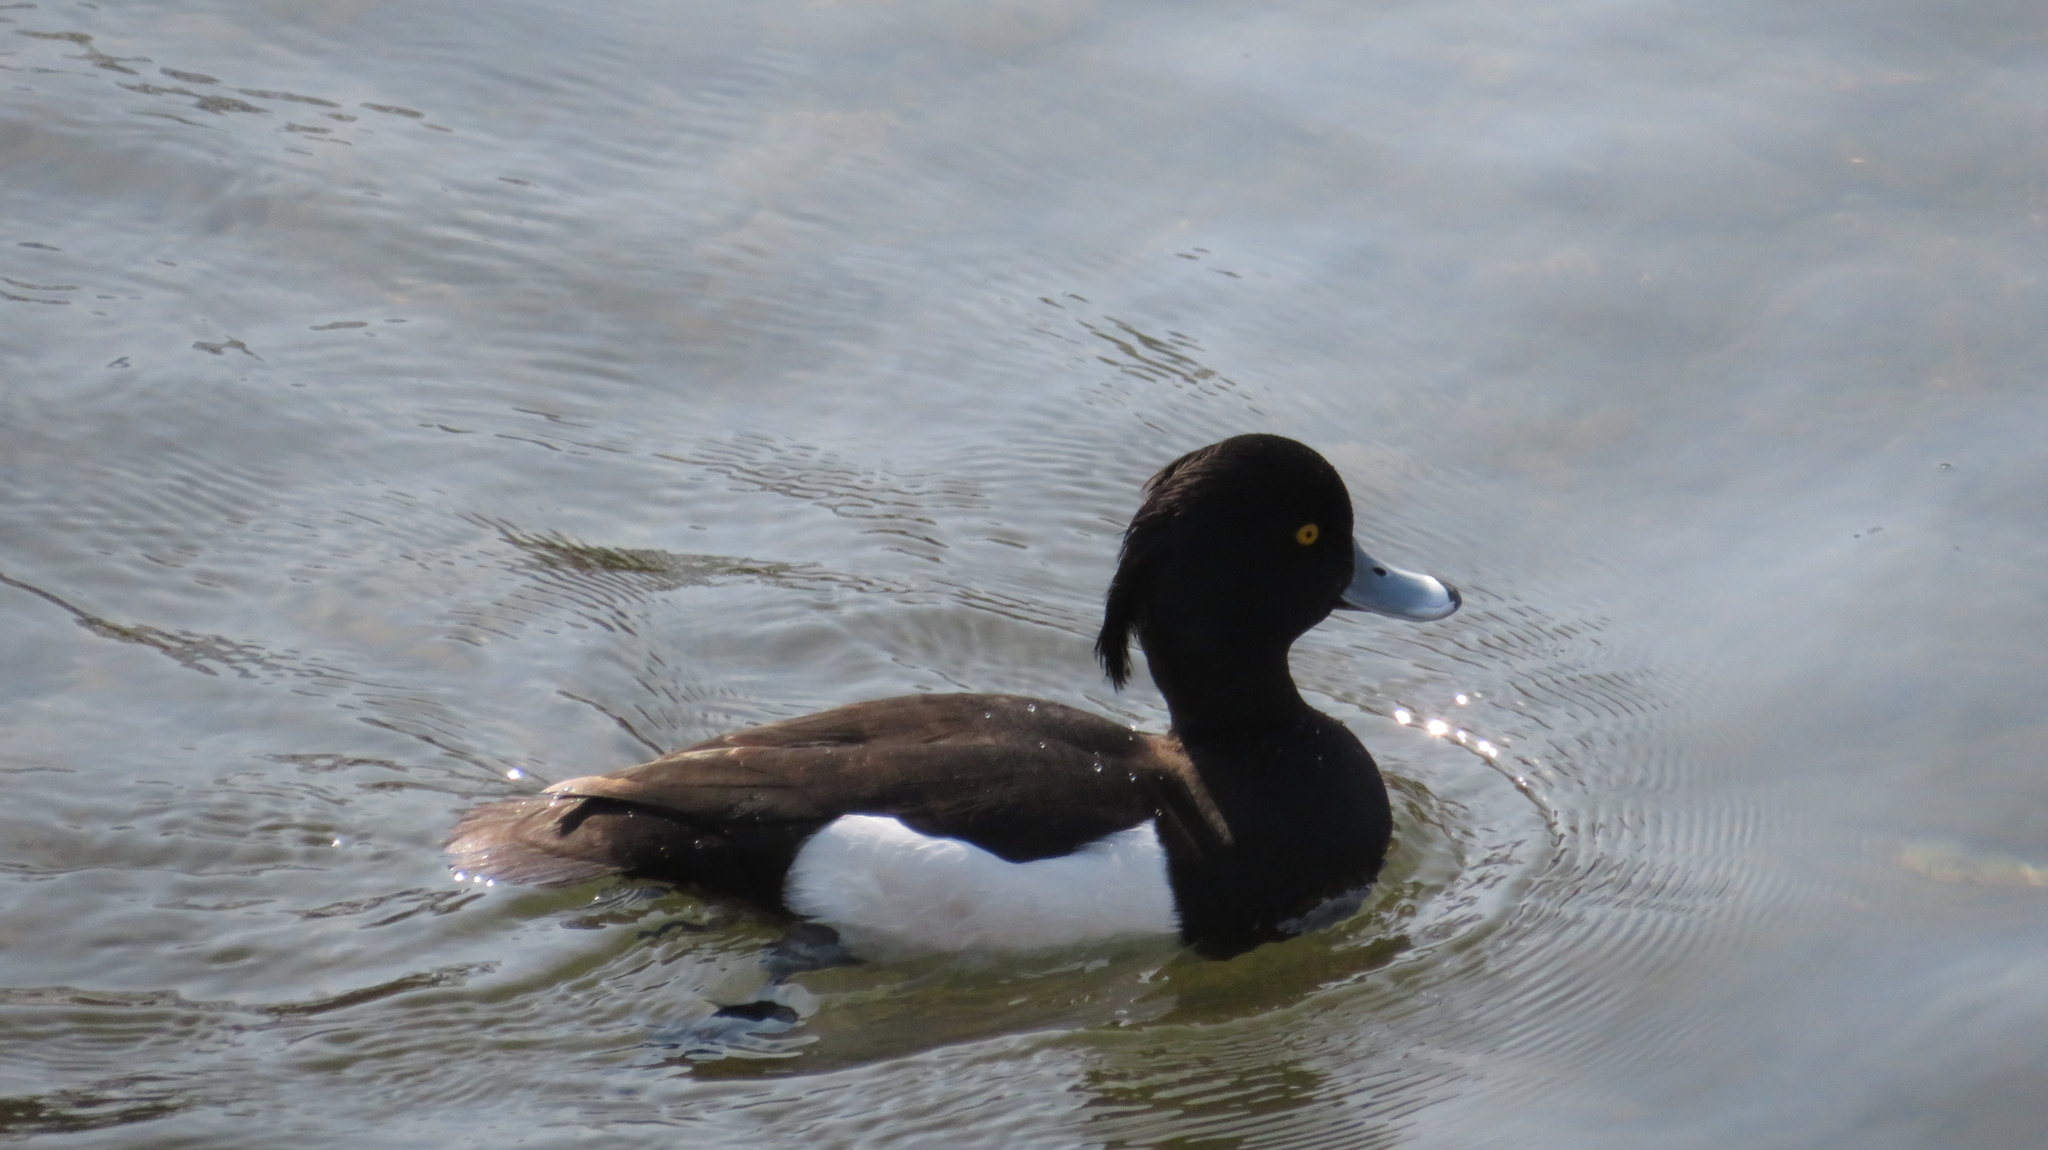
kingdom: Animalia
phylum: Chordata
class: Aves
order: Anseriformes
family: Anatidae
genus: Aythya
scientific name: Aythya fuligula
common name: Tufted duck
